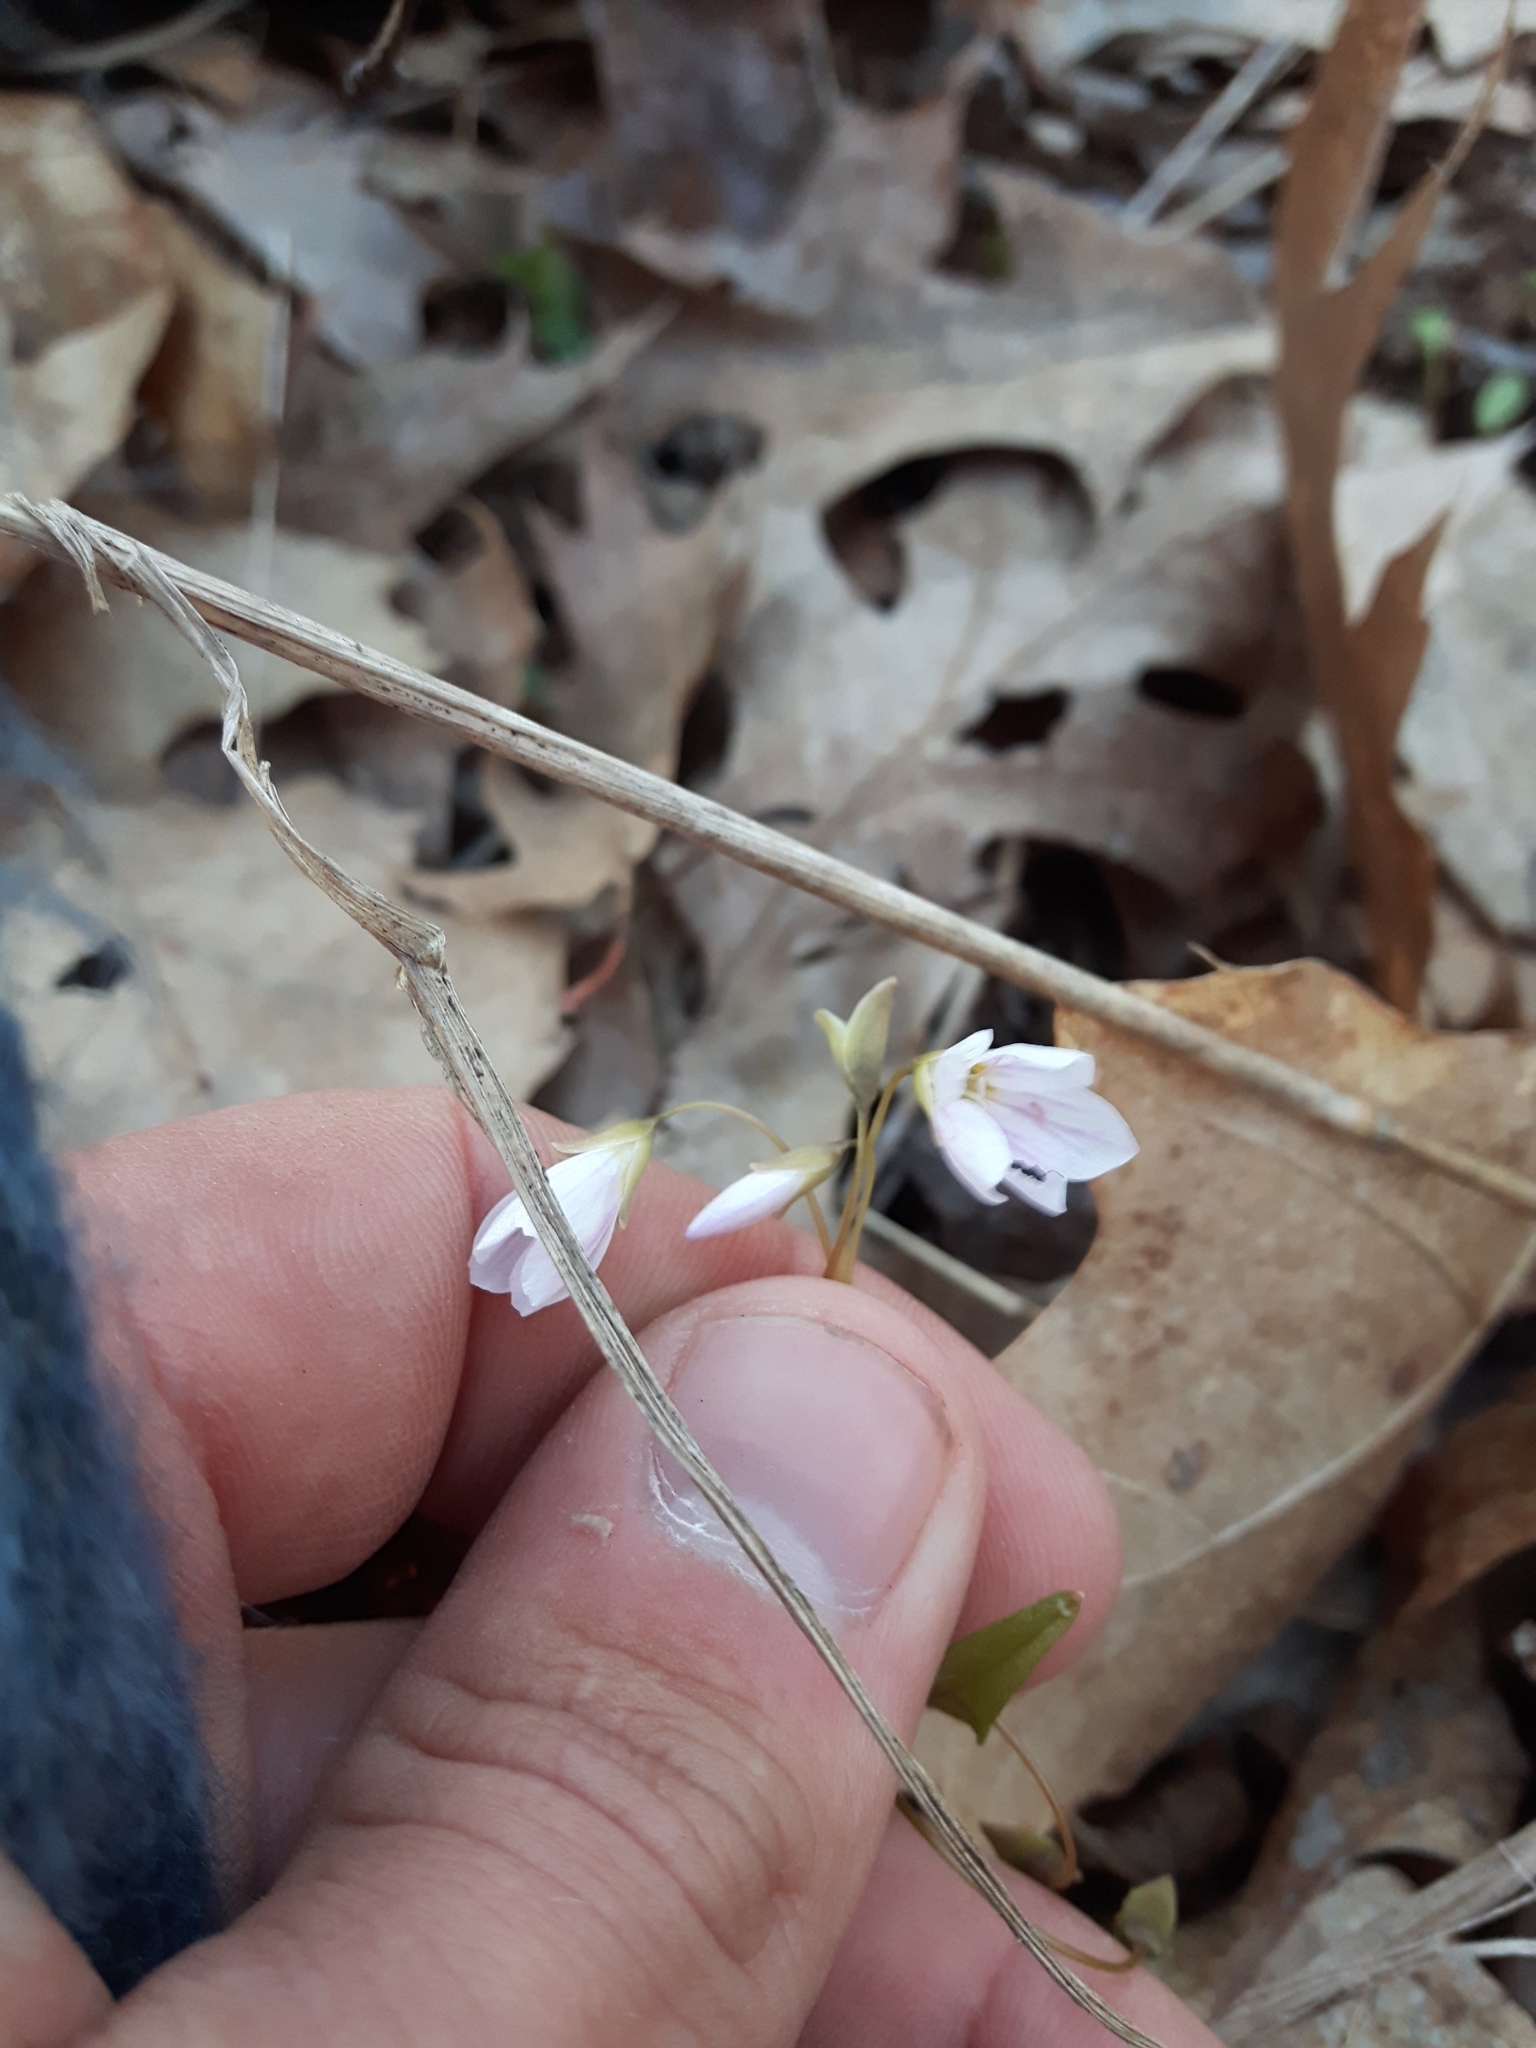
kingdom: Plantae
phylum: Tracheophyta
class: Magnoliopsida
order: Caryophyllales
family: Montiaceae
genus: Claytonia
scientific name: Claytonia caroliniana
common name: Carolina spring beauty
